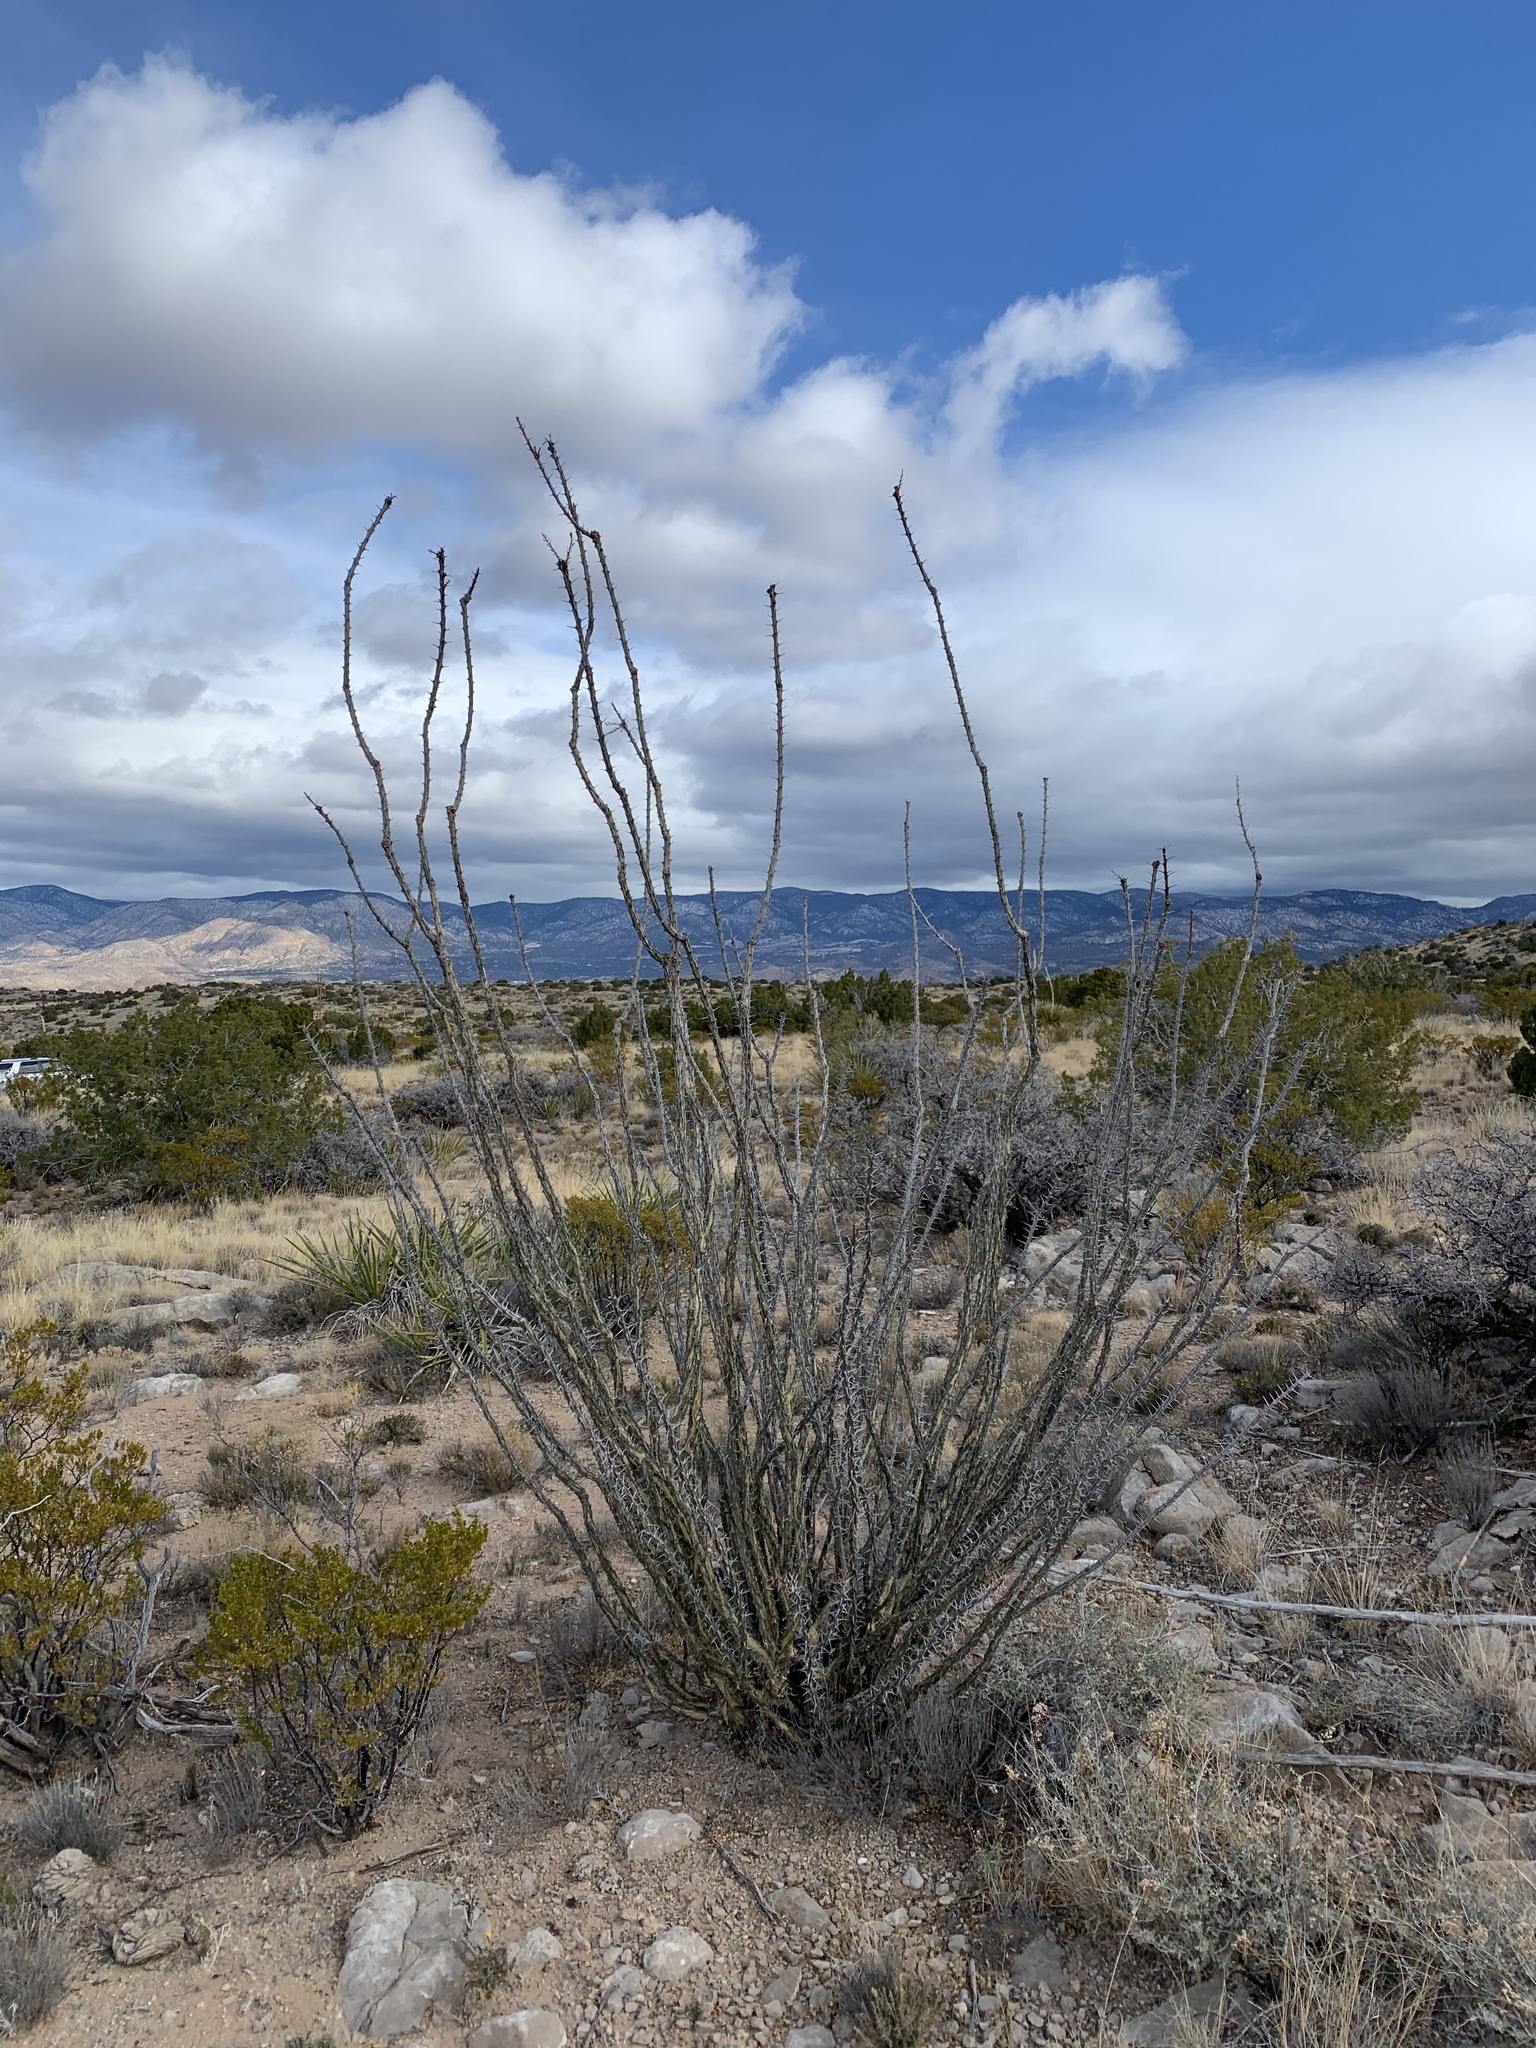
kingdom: Plantae
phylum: Tracheophyta
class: Magnoliopsida
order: Ericales
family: Fouquieriaceae
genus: Fouquieria
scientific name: Fouquieria splendens
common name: Vine-cactus
